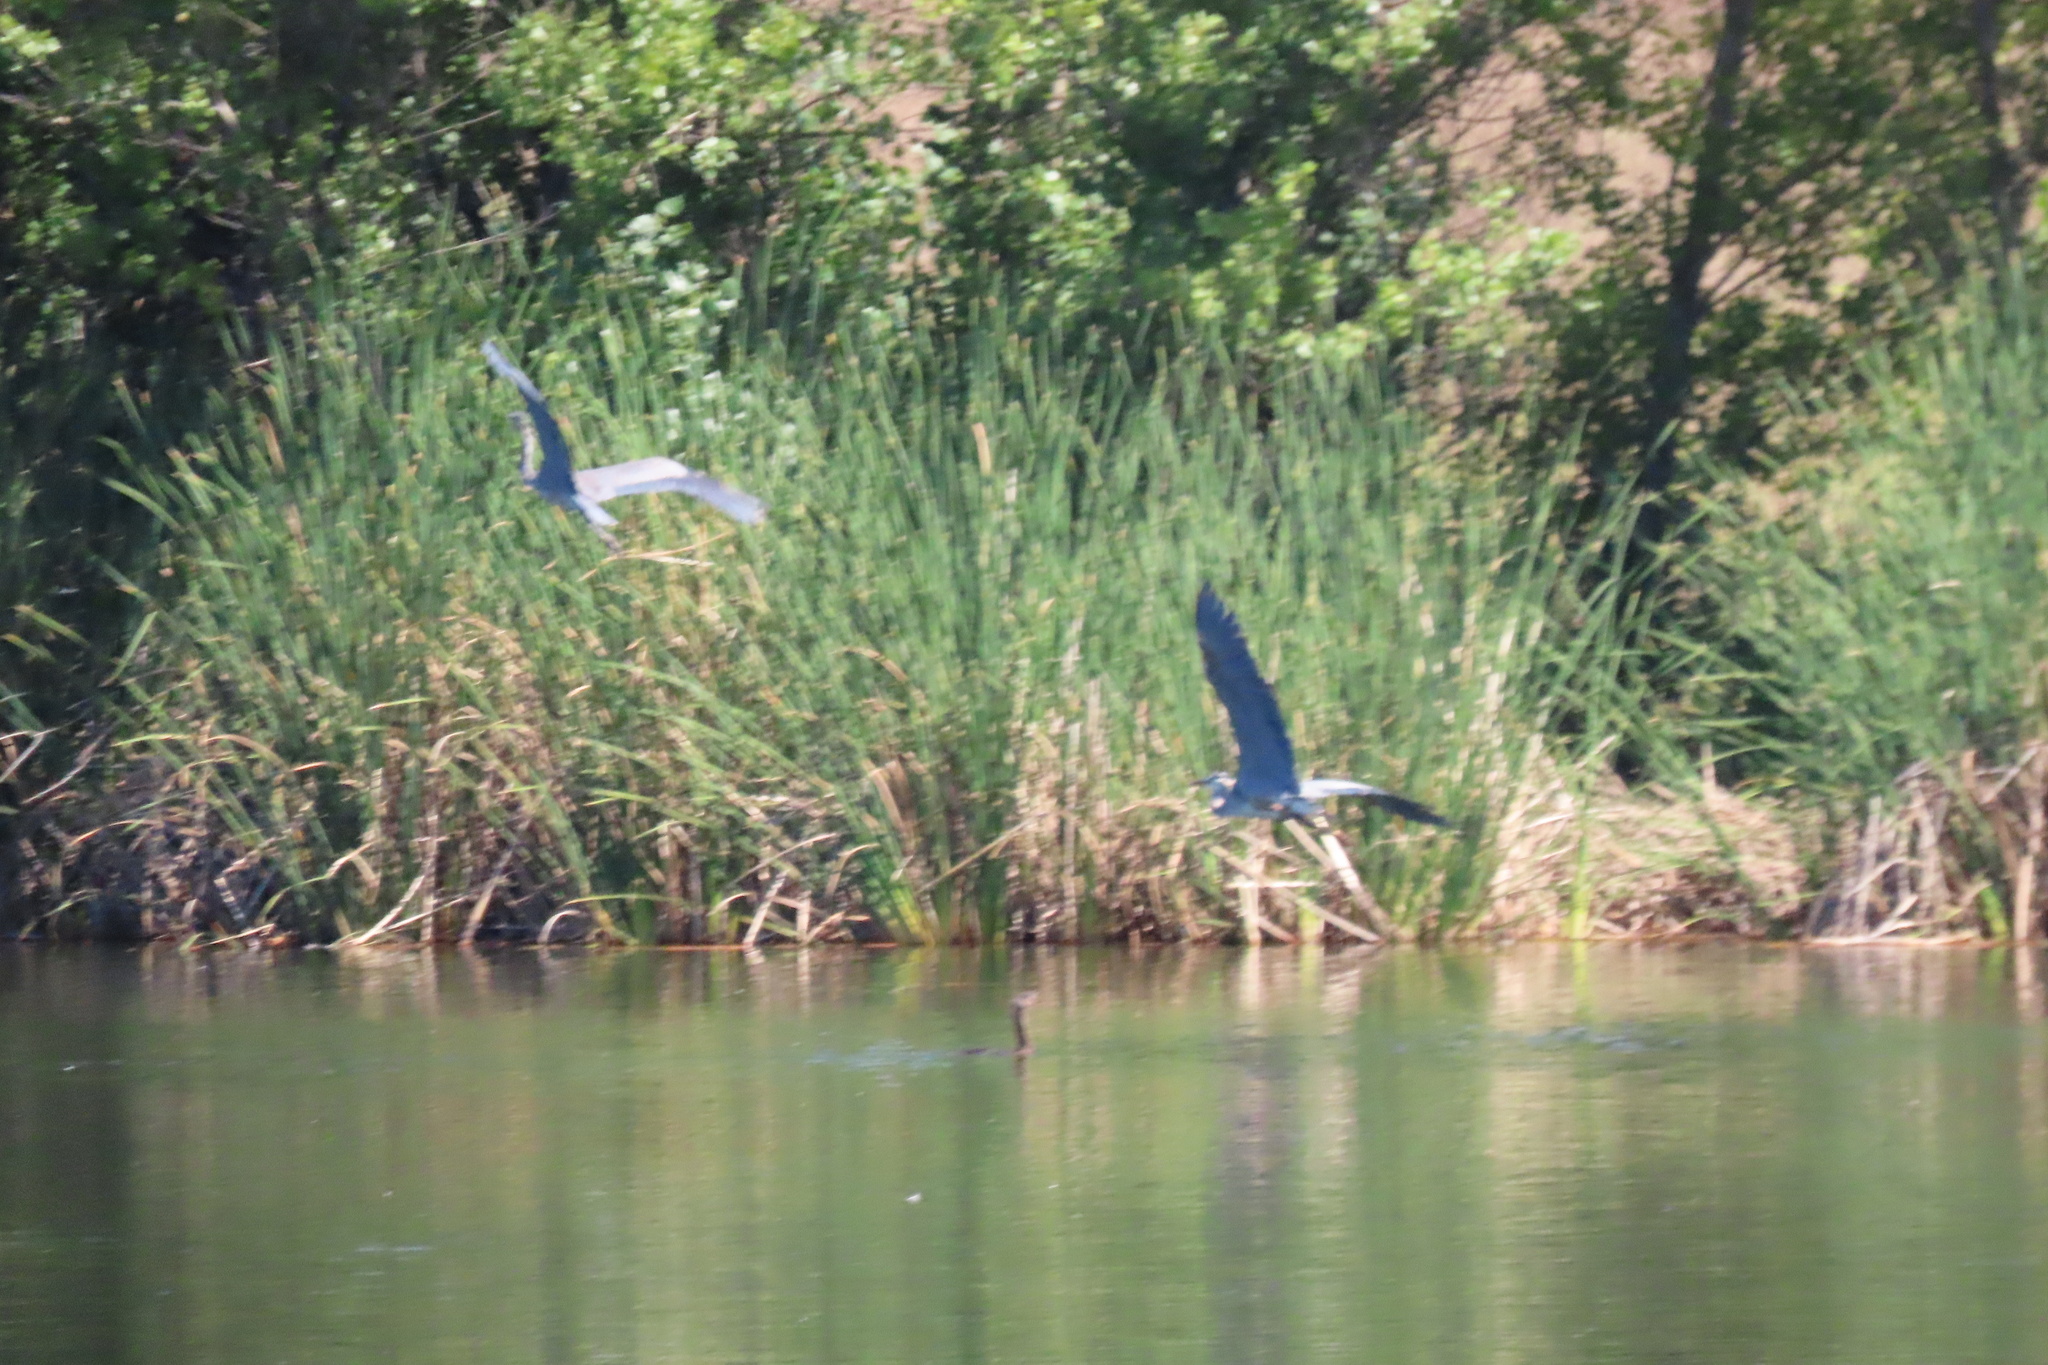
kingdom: Animalia
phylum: Chordata
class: Aves
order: Pelecaniformes
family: Ardeidae
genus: Ardea
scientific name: Ardea herodias
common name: Great blue heron
